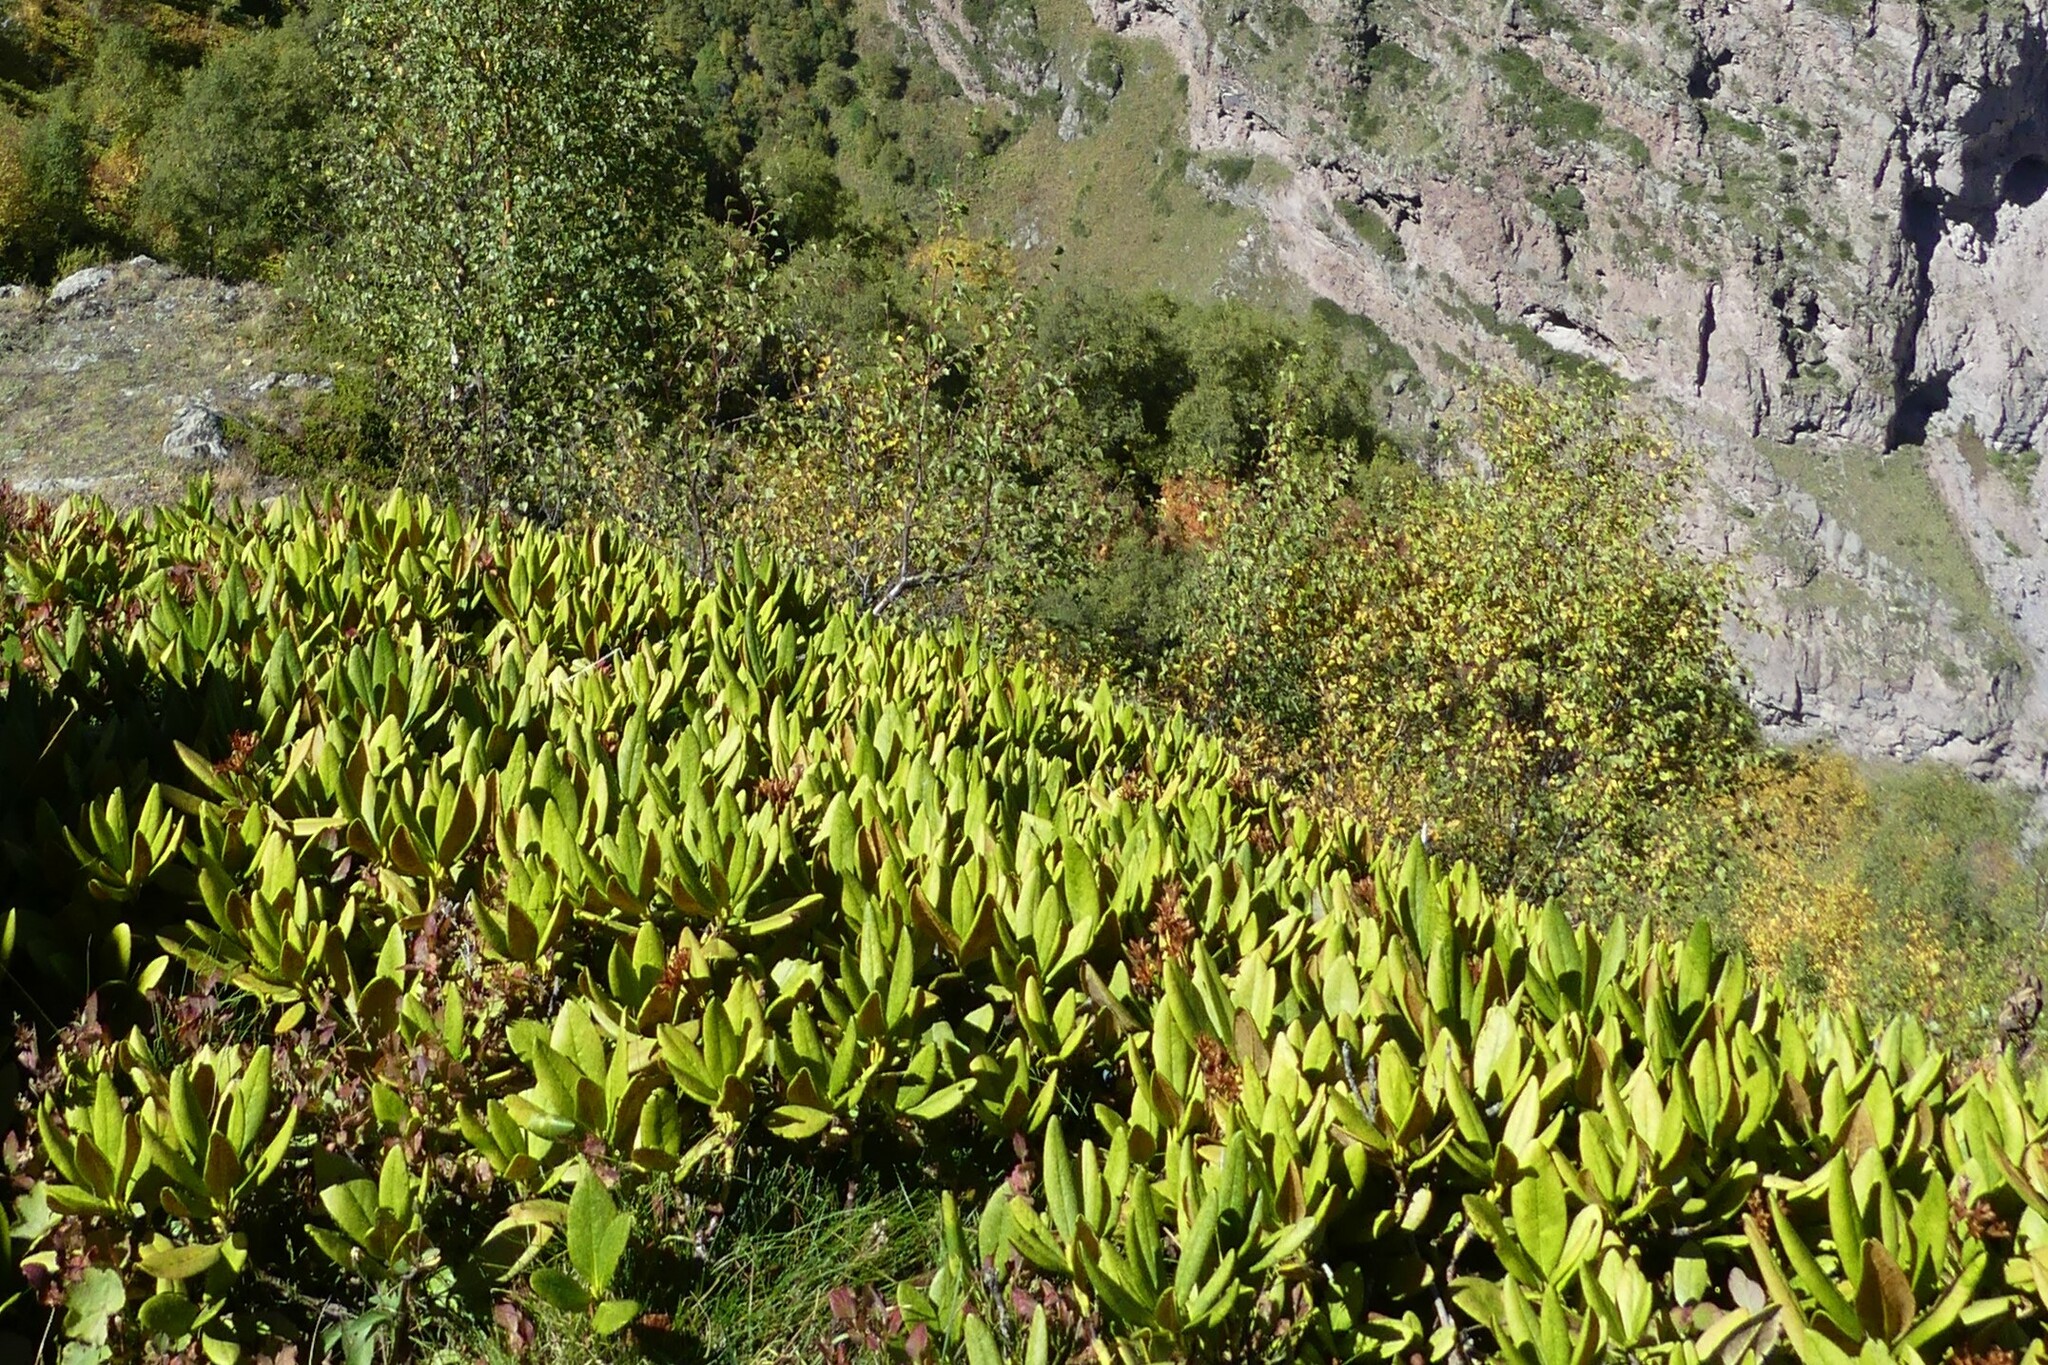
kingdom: Plantae
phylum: Tracheophyta
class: Magnoliopsida
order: Ericales
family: Ericaceae
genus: Rhododendron
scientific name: Rhododendron caucasicum
